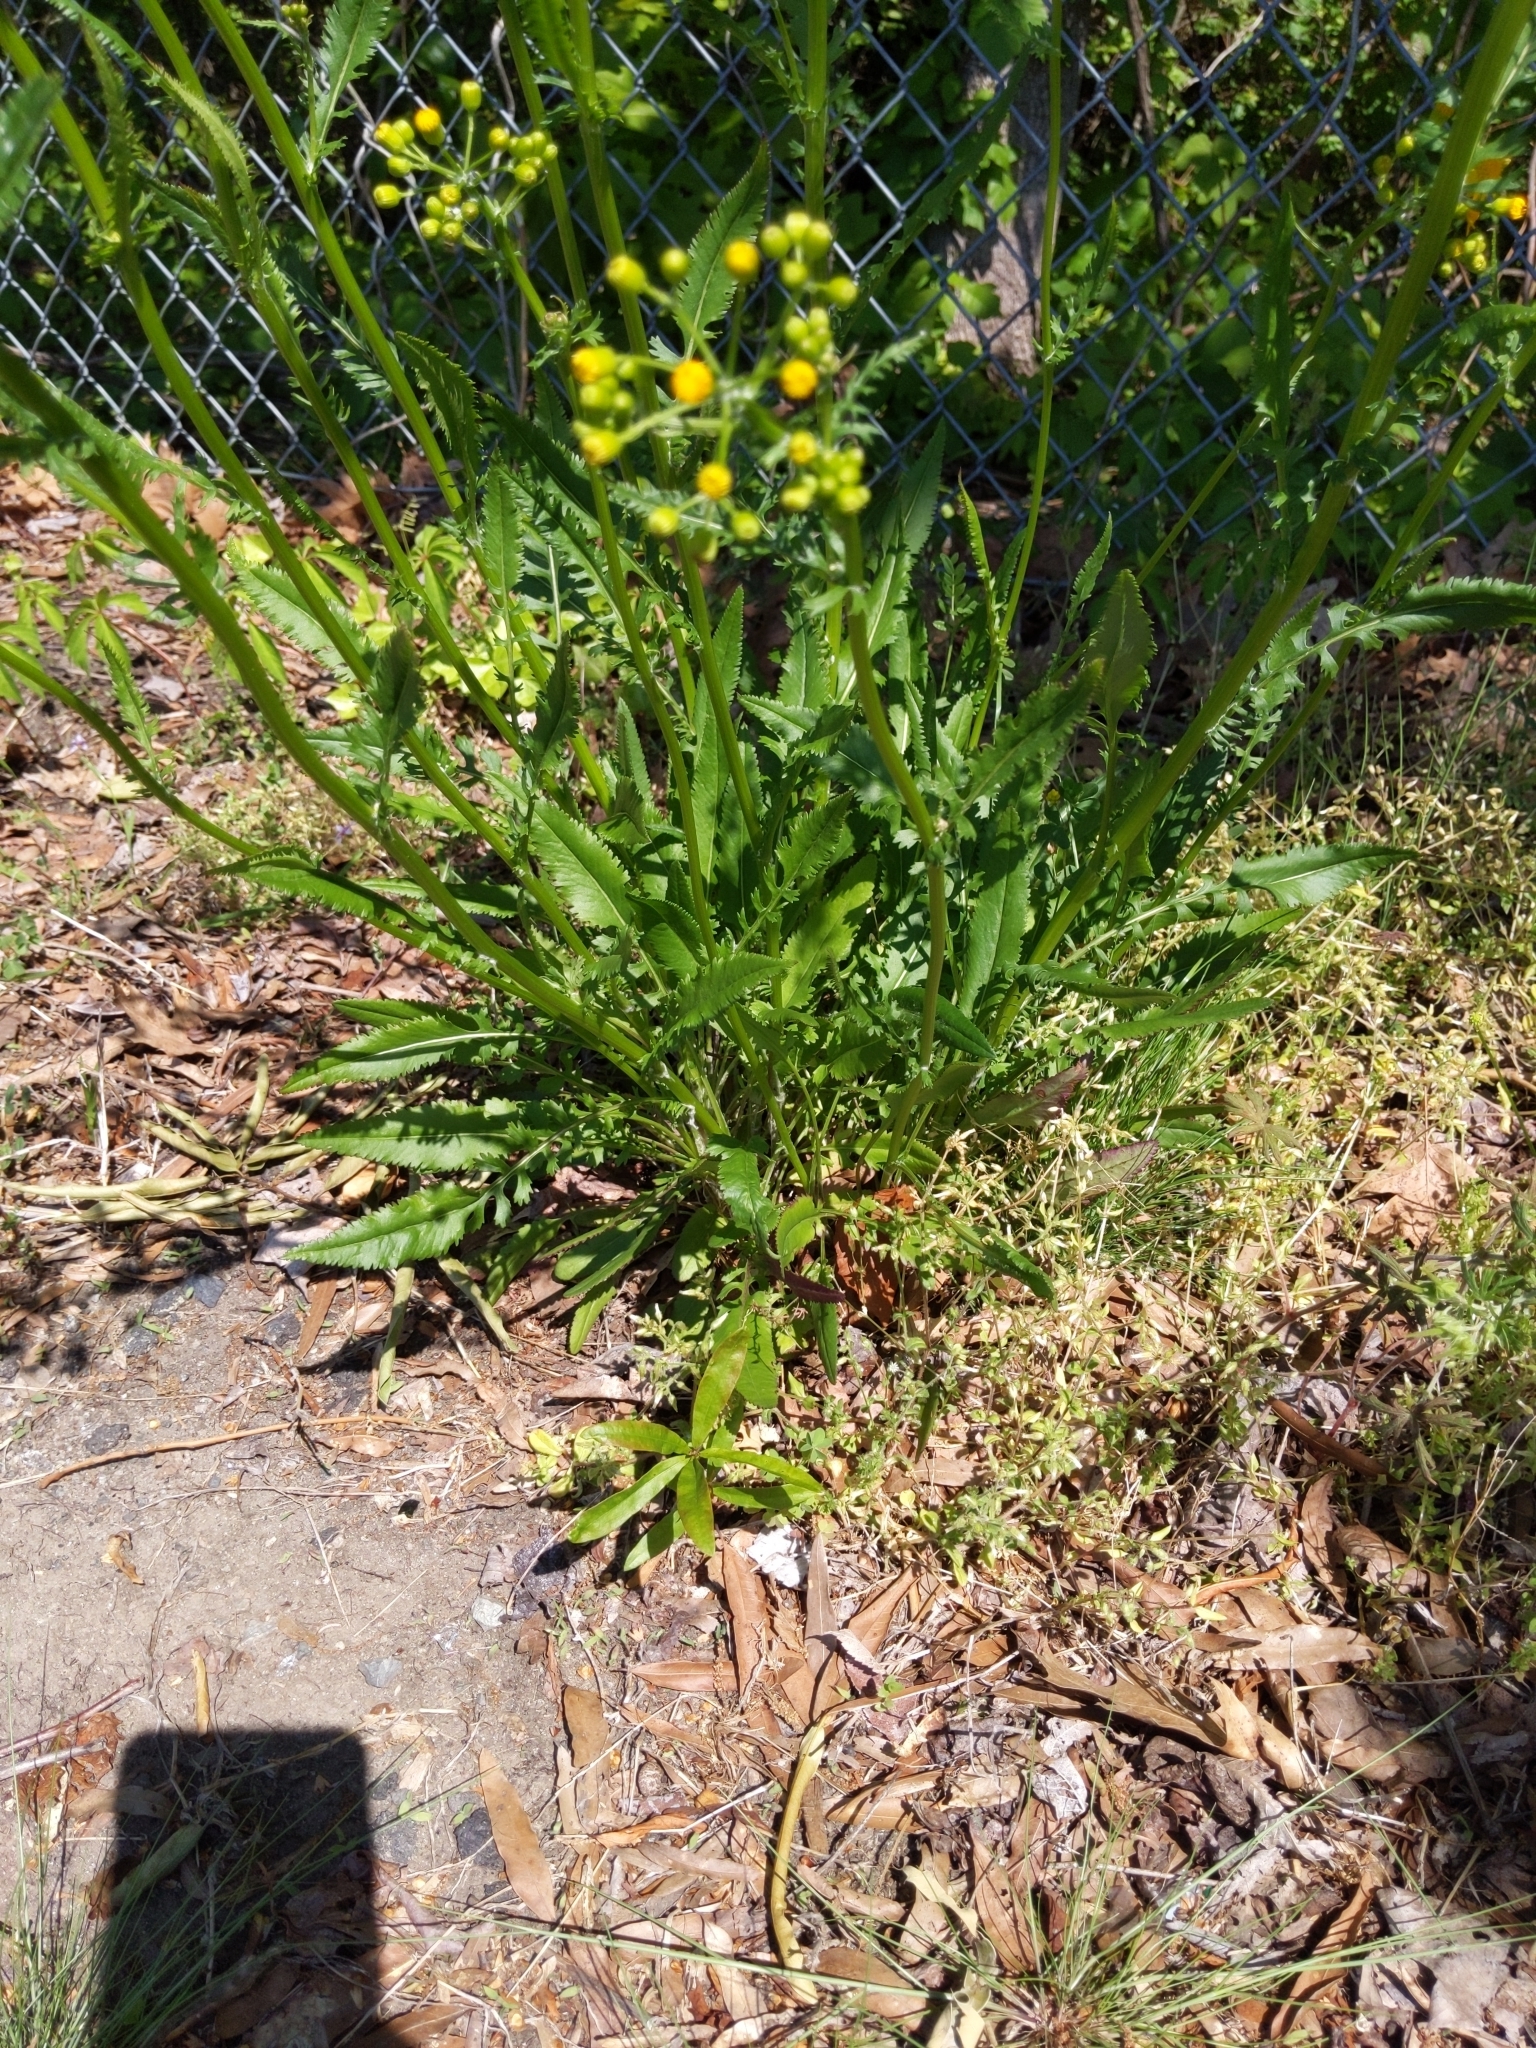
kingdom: Plantae
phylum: Tracheophyta
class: Magnoliopsida
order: Asterales
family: Asteraceae
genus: Packera
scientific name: Packera anonyma
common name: Small ragwort
